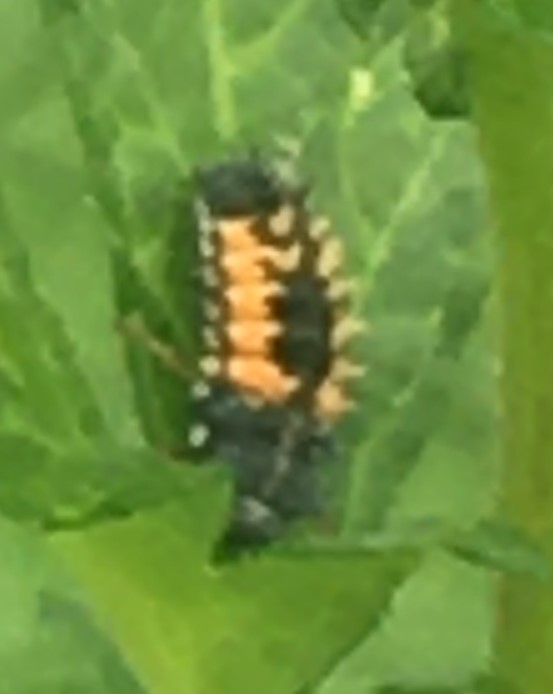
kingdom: Animalia
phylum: Arthropoda
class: Insecta
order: Coleoptera
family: Coccinellidae
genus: Harmonia
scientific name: Harmonia axyridis
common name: Harlequin ladybird
